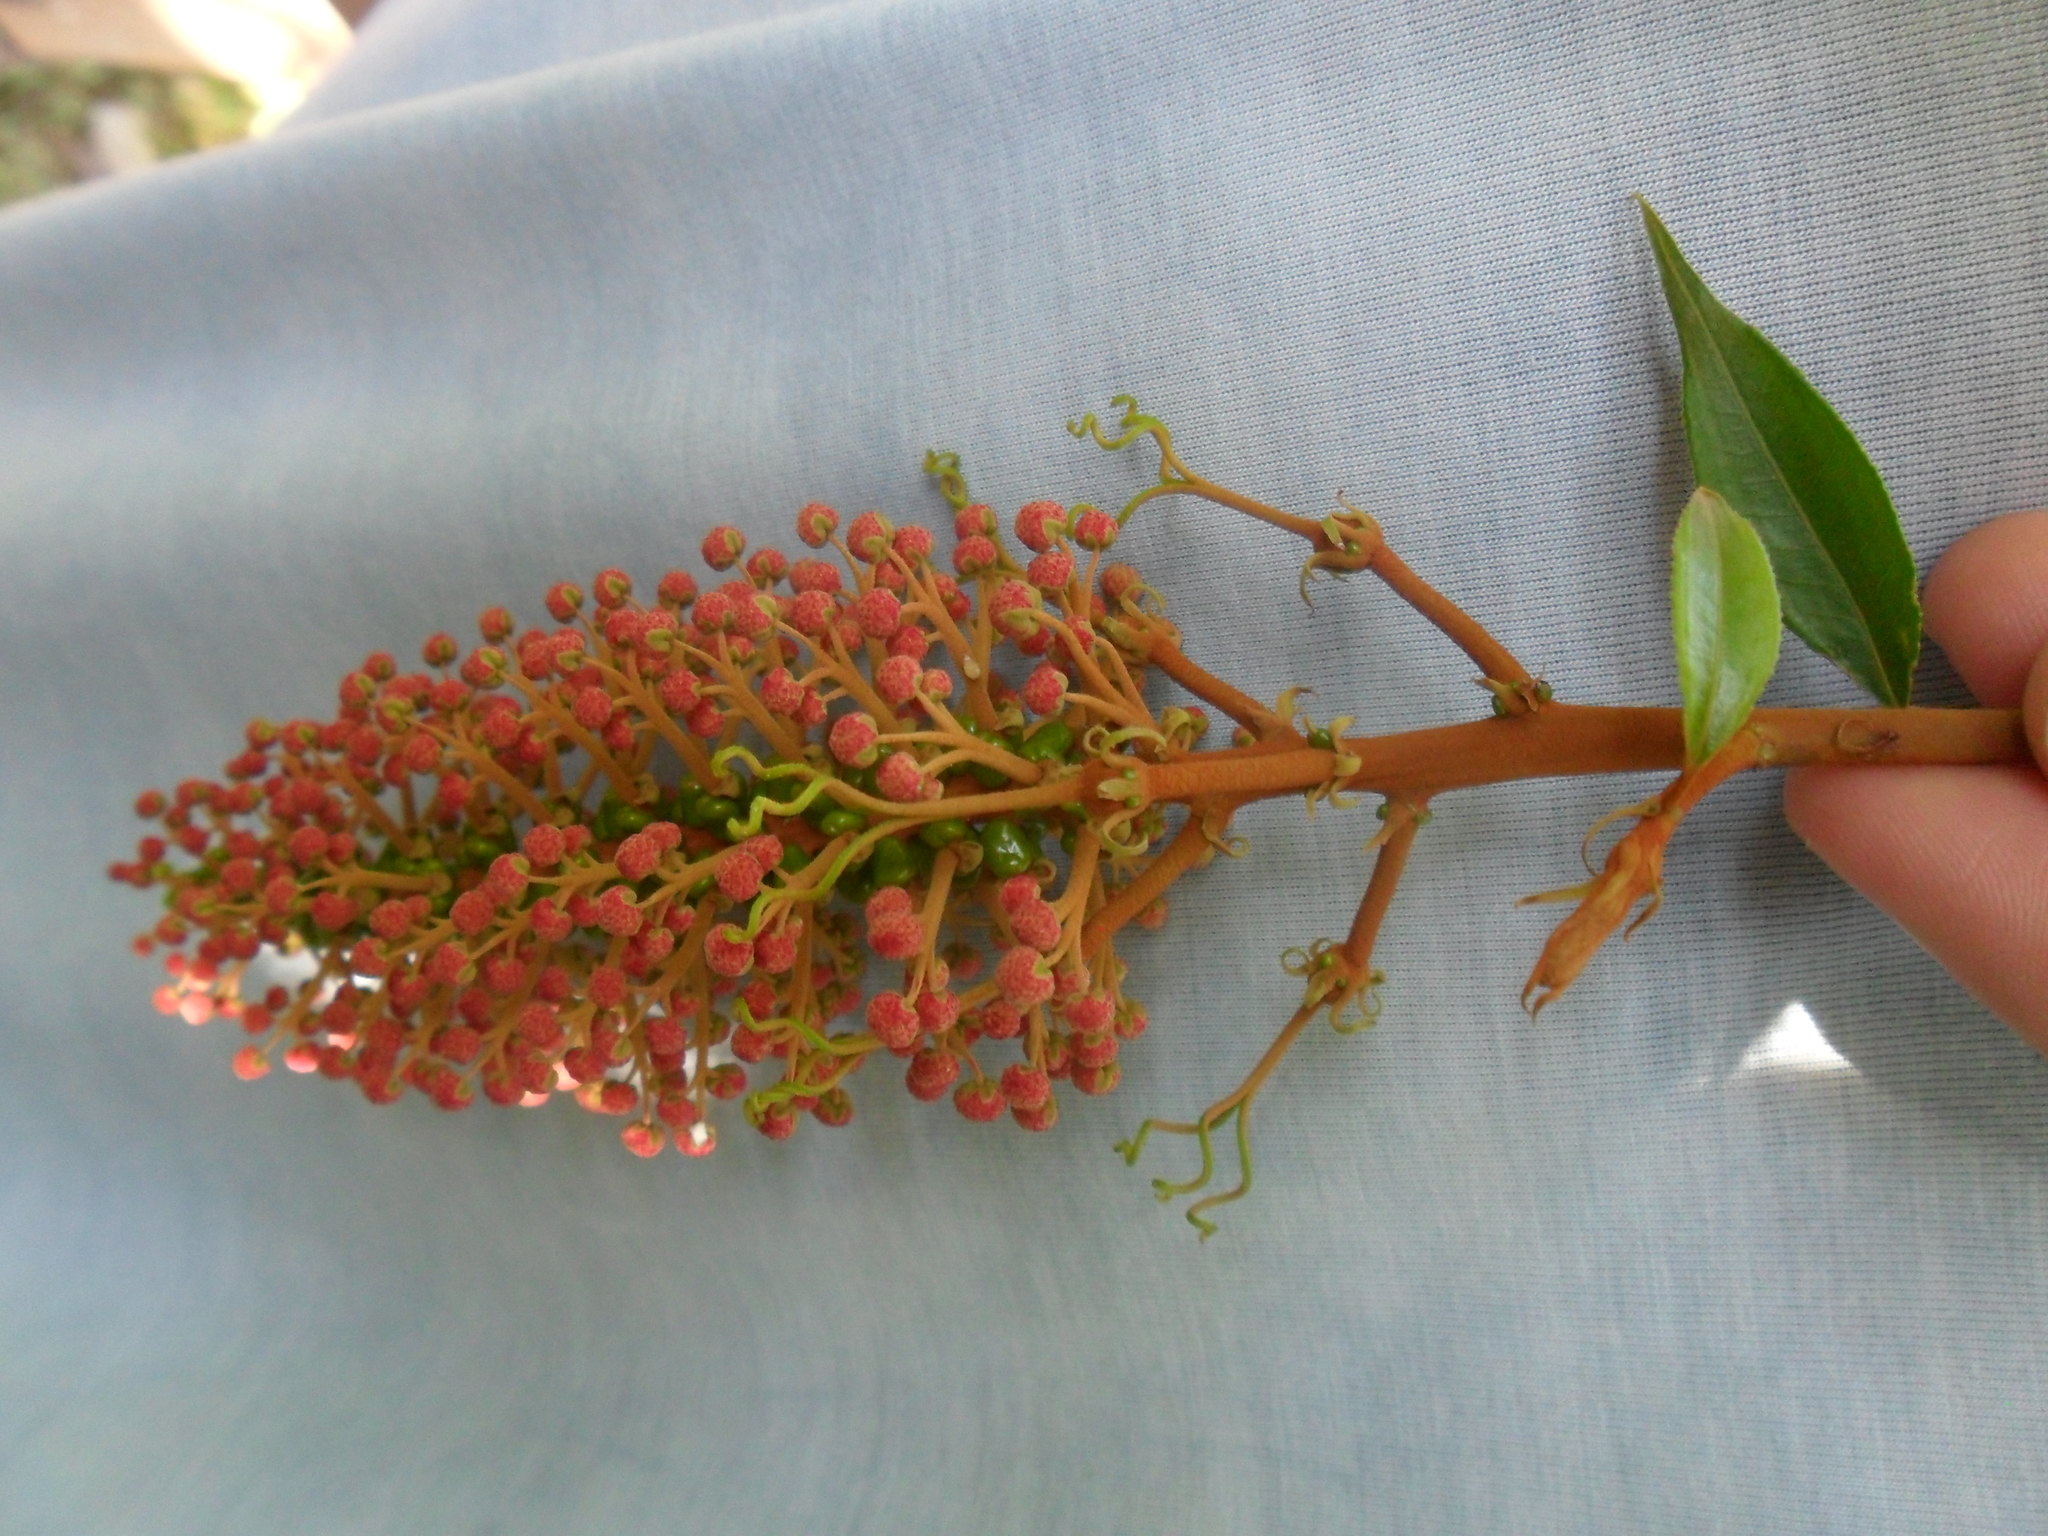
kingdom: Plantae
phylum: Tracheophyta
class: Magnoliopsida
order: Malpighiales
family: Euphorbiaceae
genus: Mabea
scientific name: Mabea fistulifera
